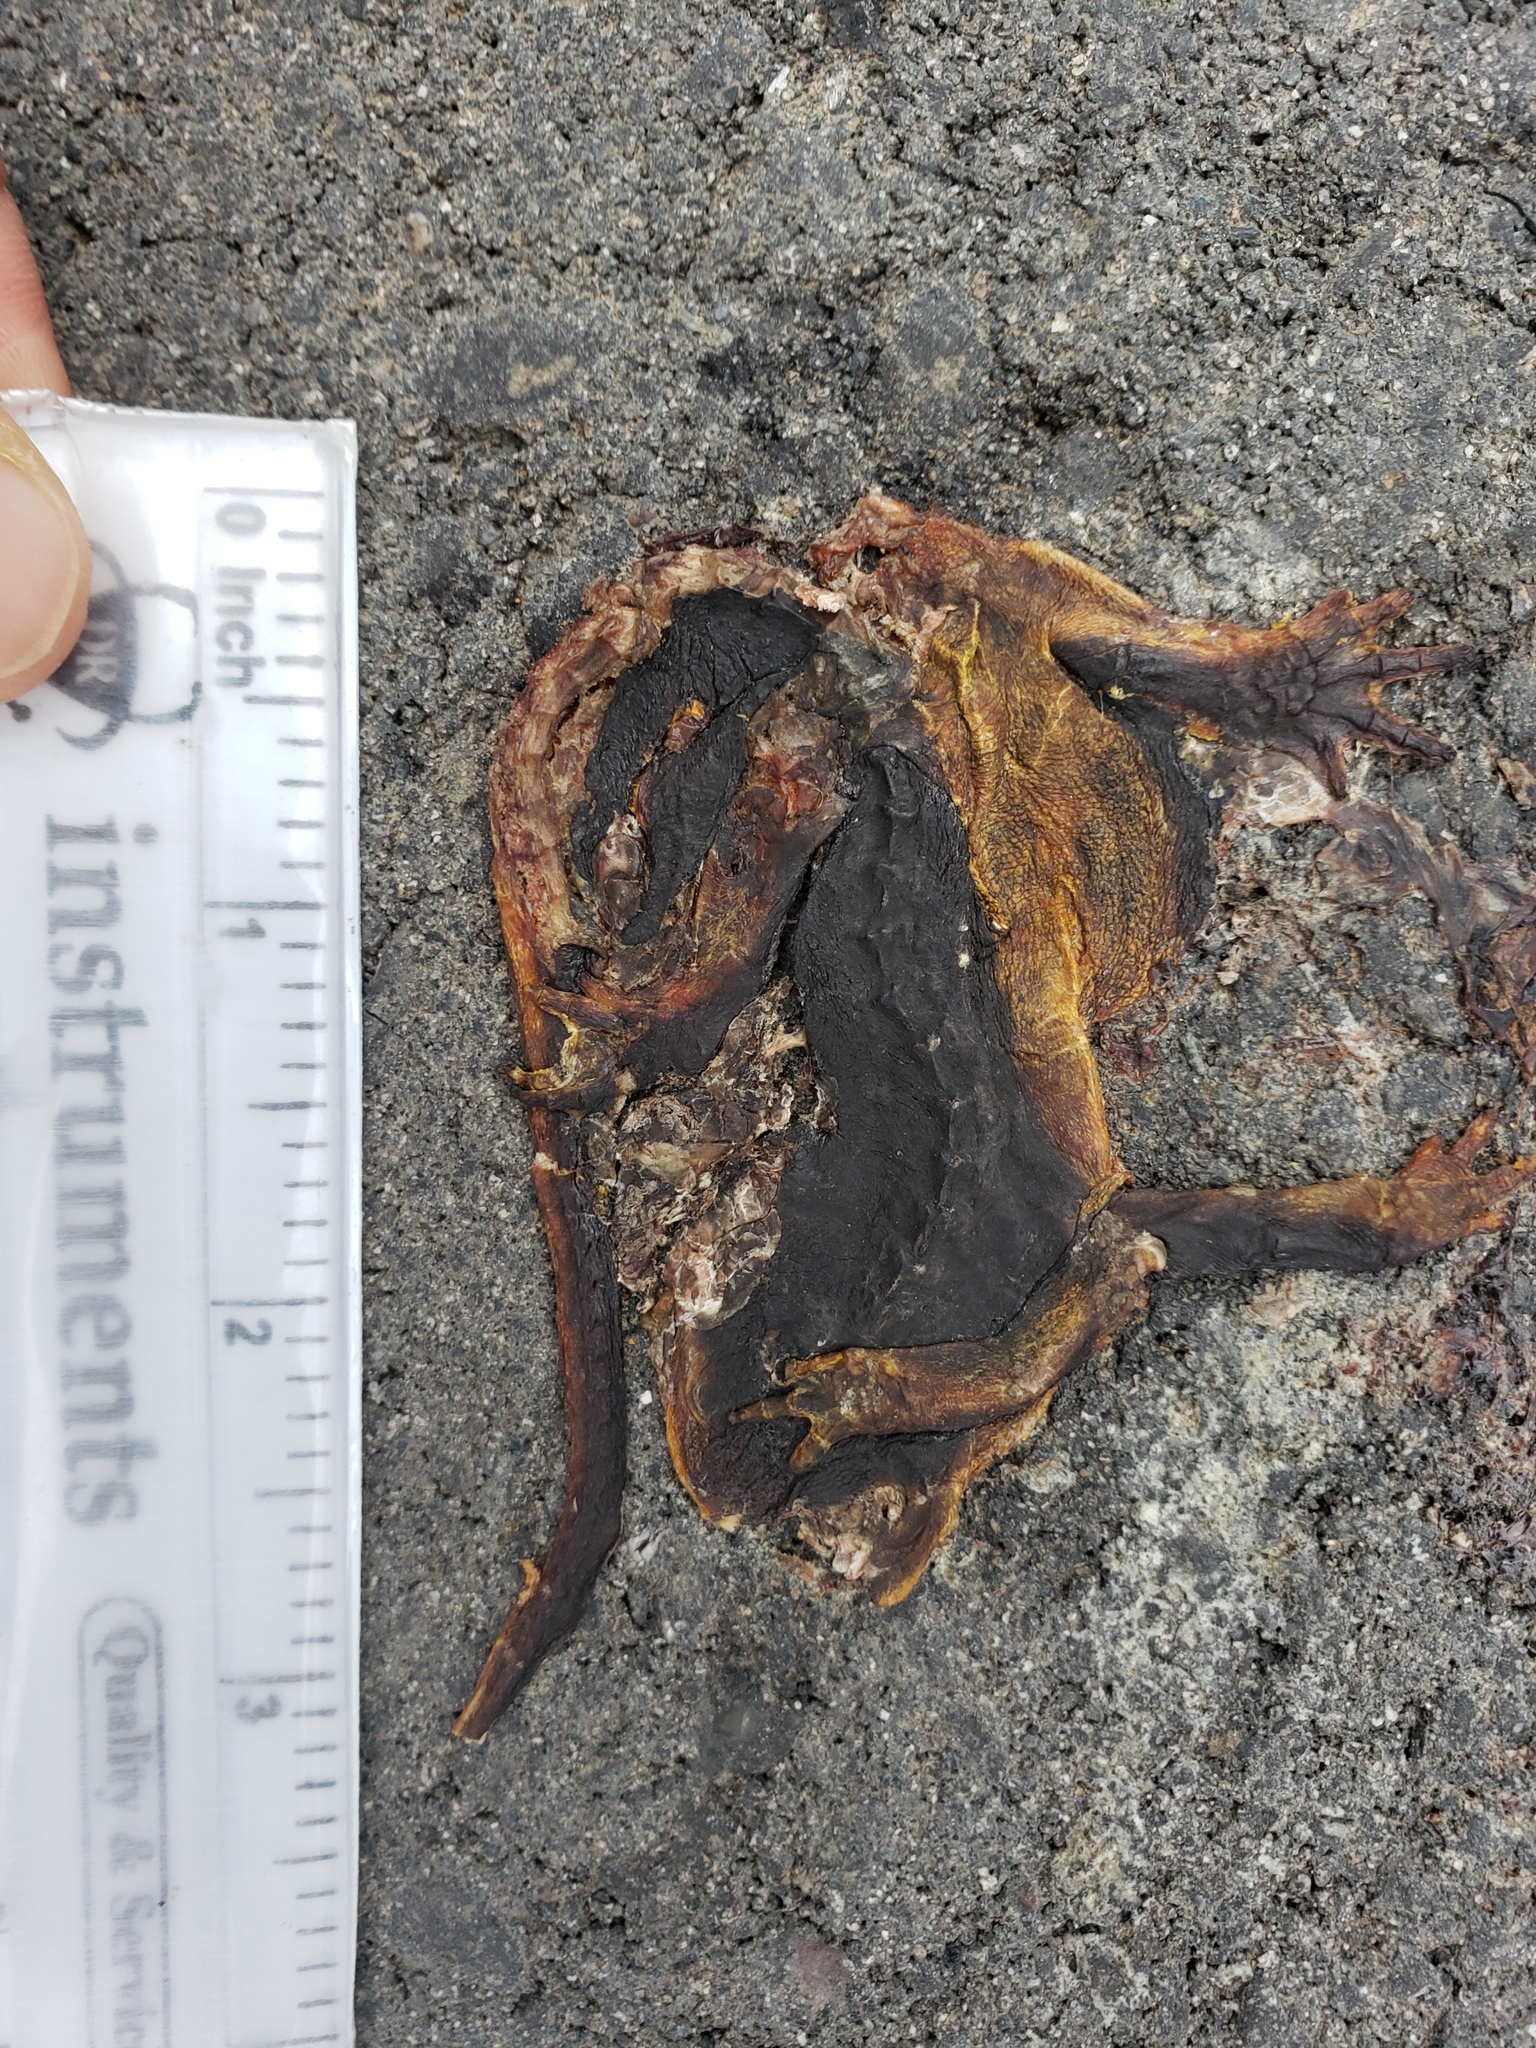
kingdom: Animalia
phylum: Chordata
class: Amphibia
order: Caudata
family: Salamandridae
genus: Taricha
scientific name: Taricha
